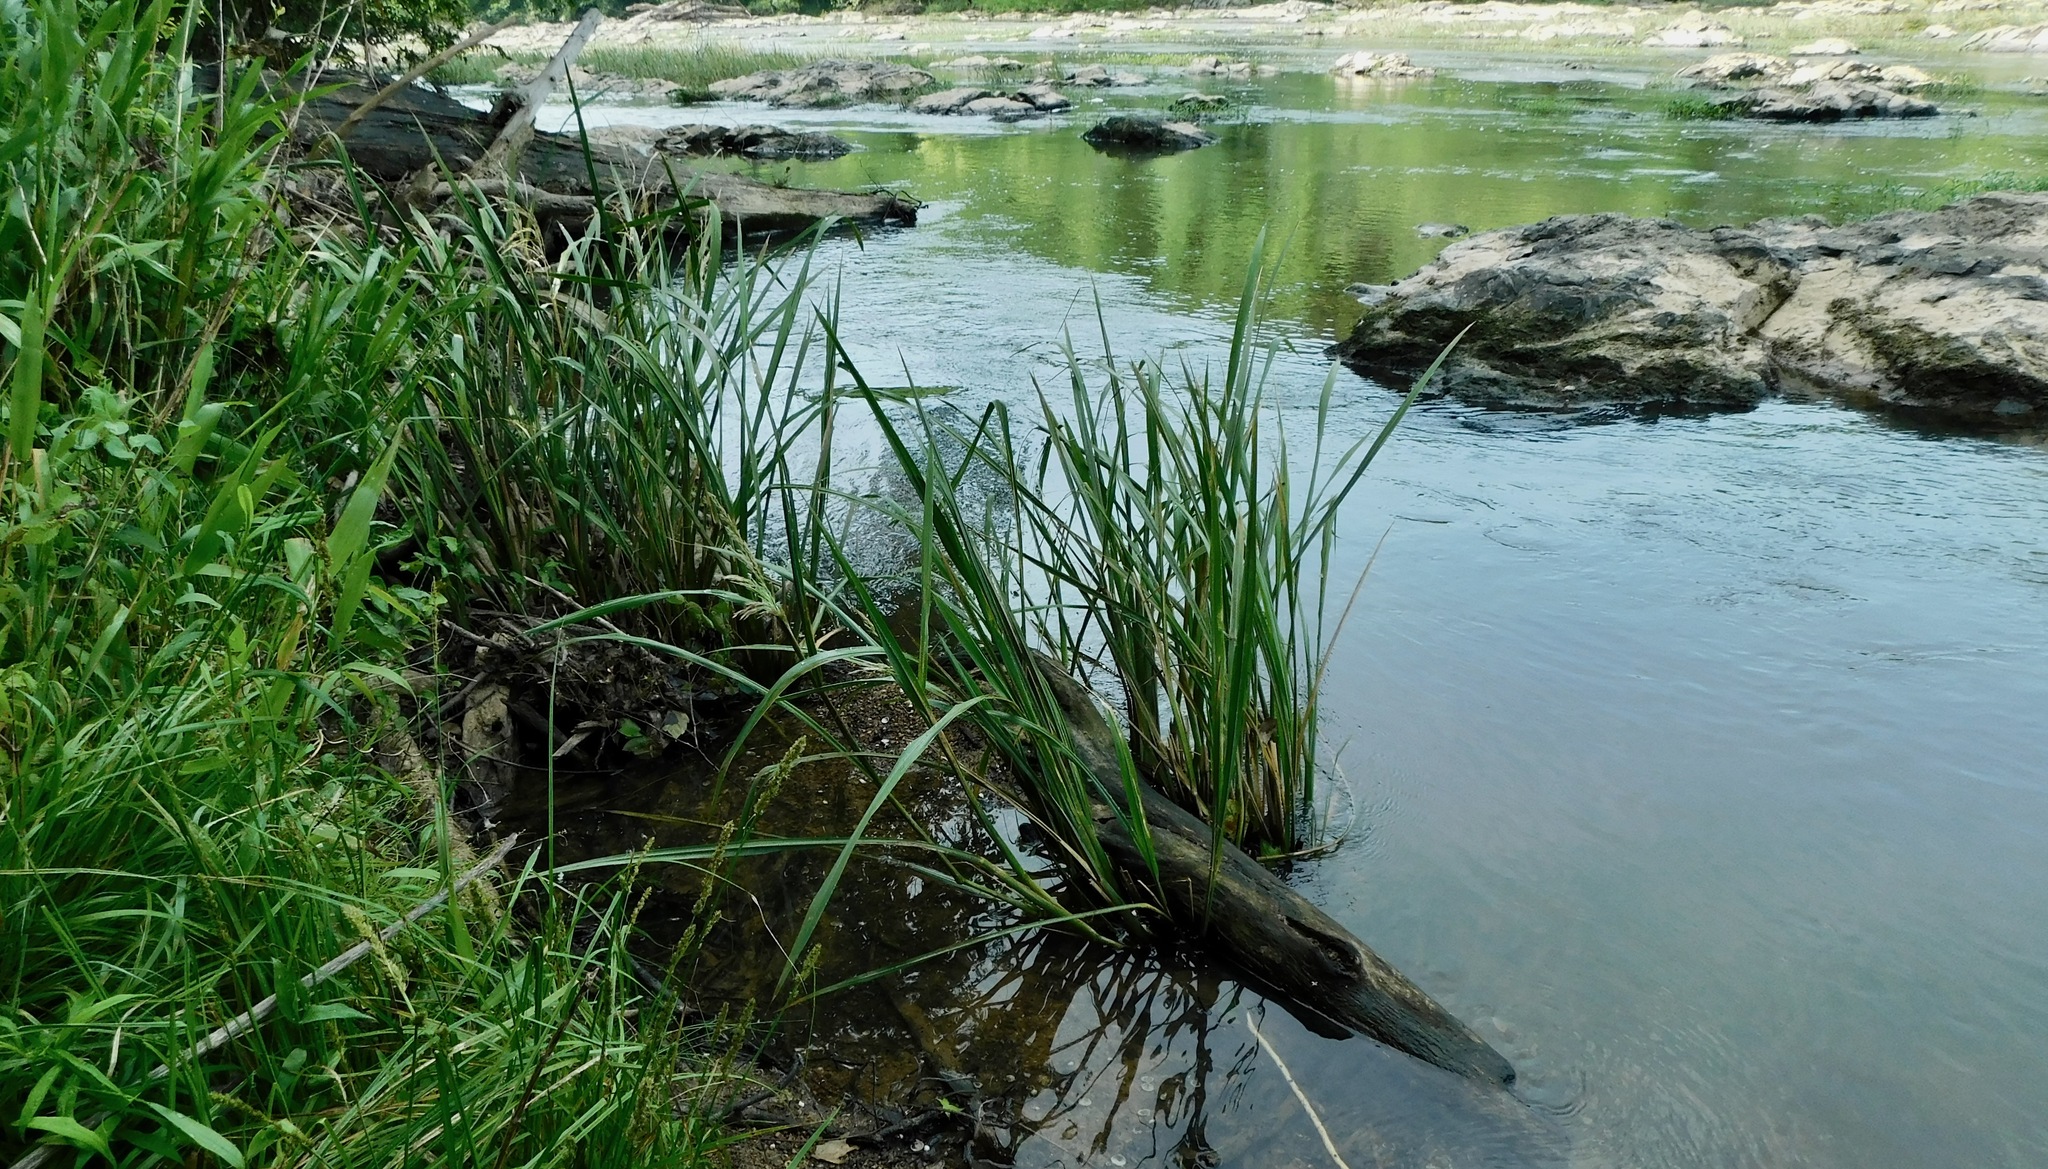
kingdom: Plantae
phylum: Tracheophyta
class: Liliopsida
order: Poales
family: Poaceae
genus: Zizaniopsis
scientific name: Zizaniopsis miliacea
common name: Giant-cutgrass
